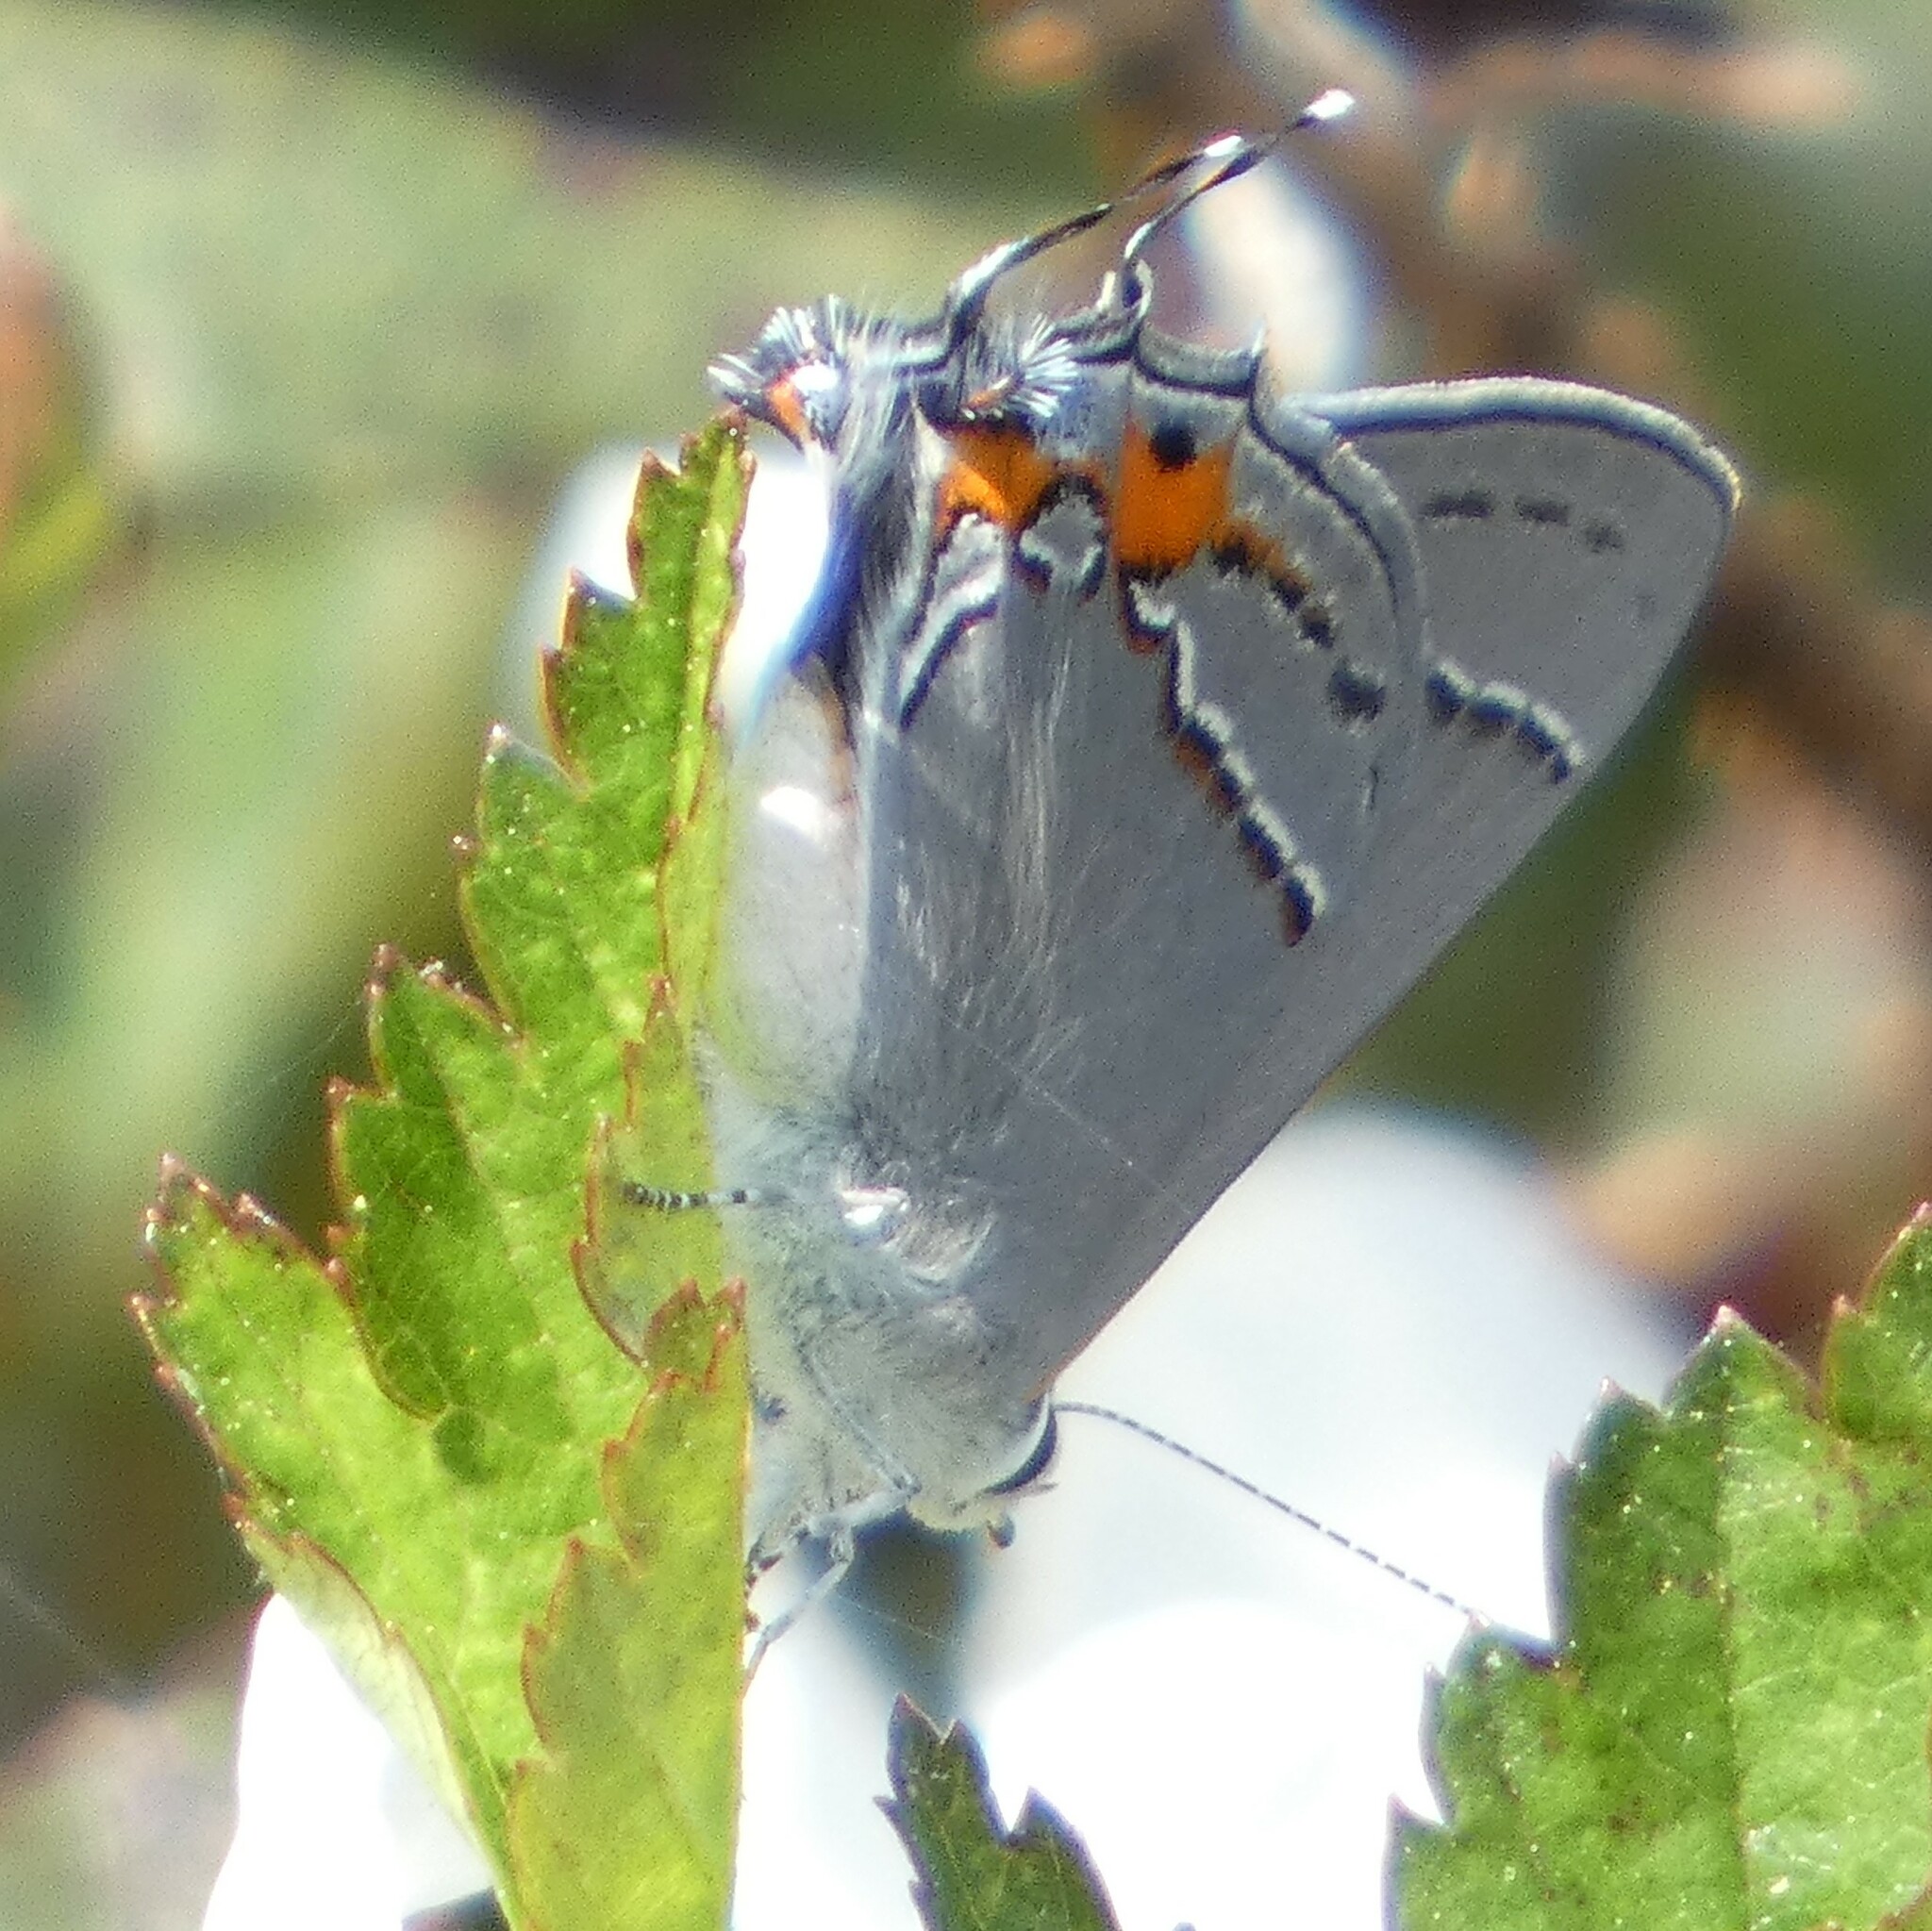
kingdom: Animalia
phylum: Arthropoda
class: Insecta
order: Lepidoptera
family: Lycaenidae
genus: Strymon
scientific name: Strymon melinus
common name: Gray hairstreak
